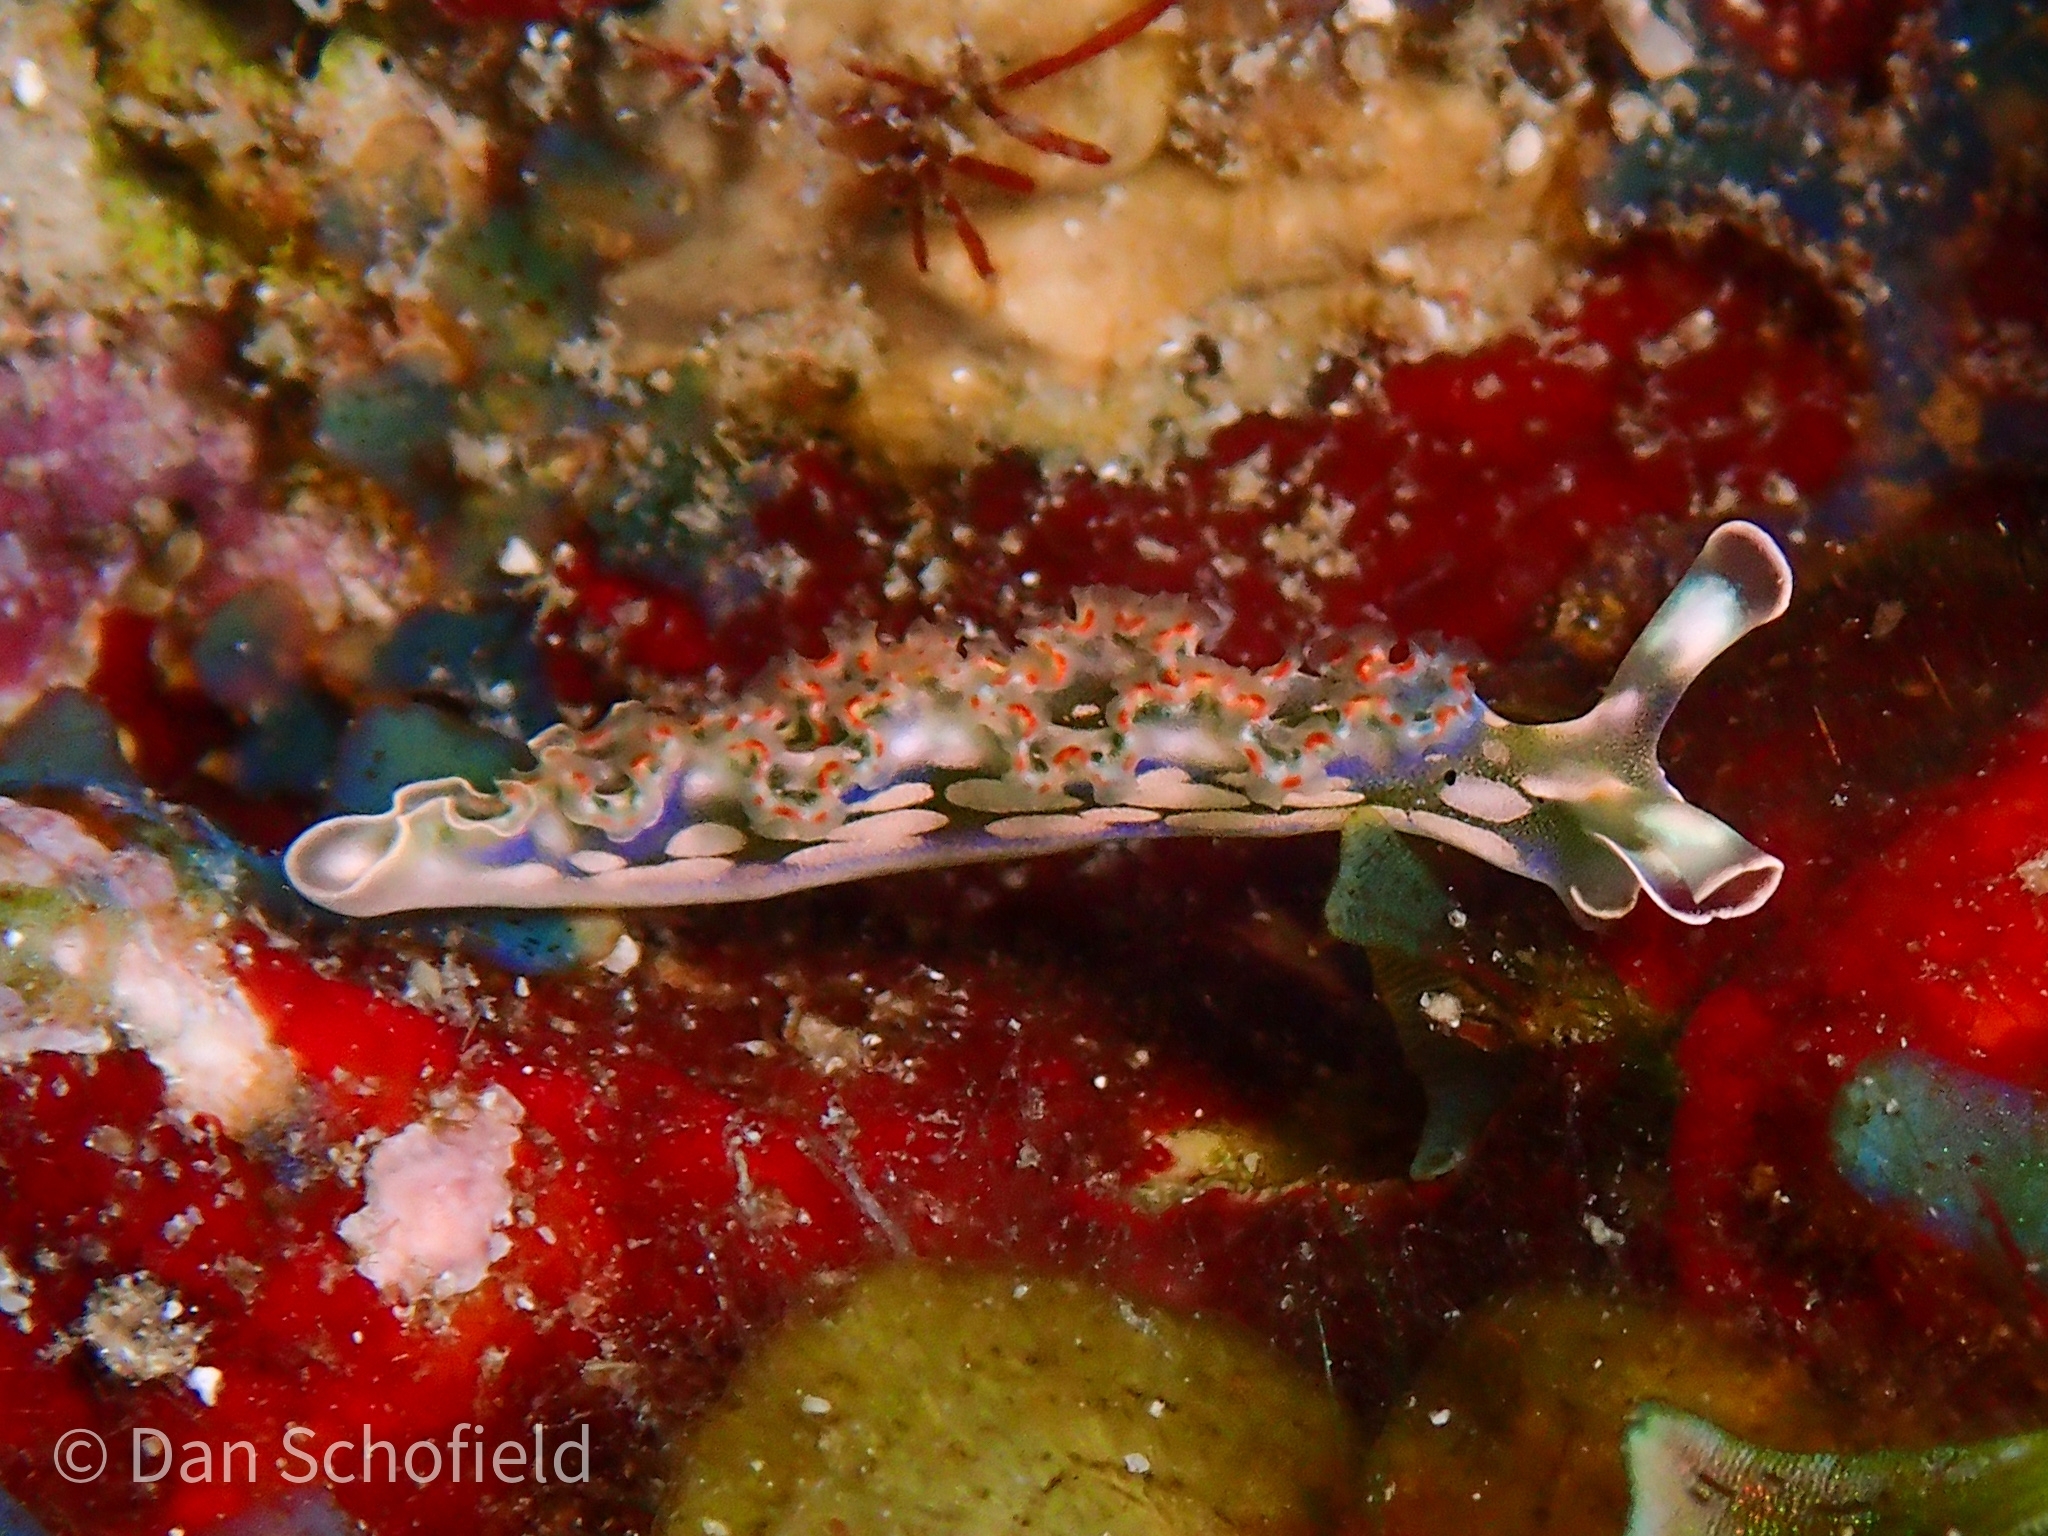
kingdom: Animalia
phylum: Mollusca
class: Gastropoda
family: Plakobranchidae
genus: Elysia
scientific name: Elysia crispata
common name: Lettuce slug
